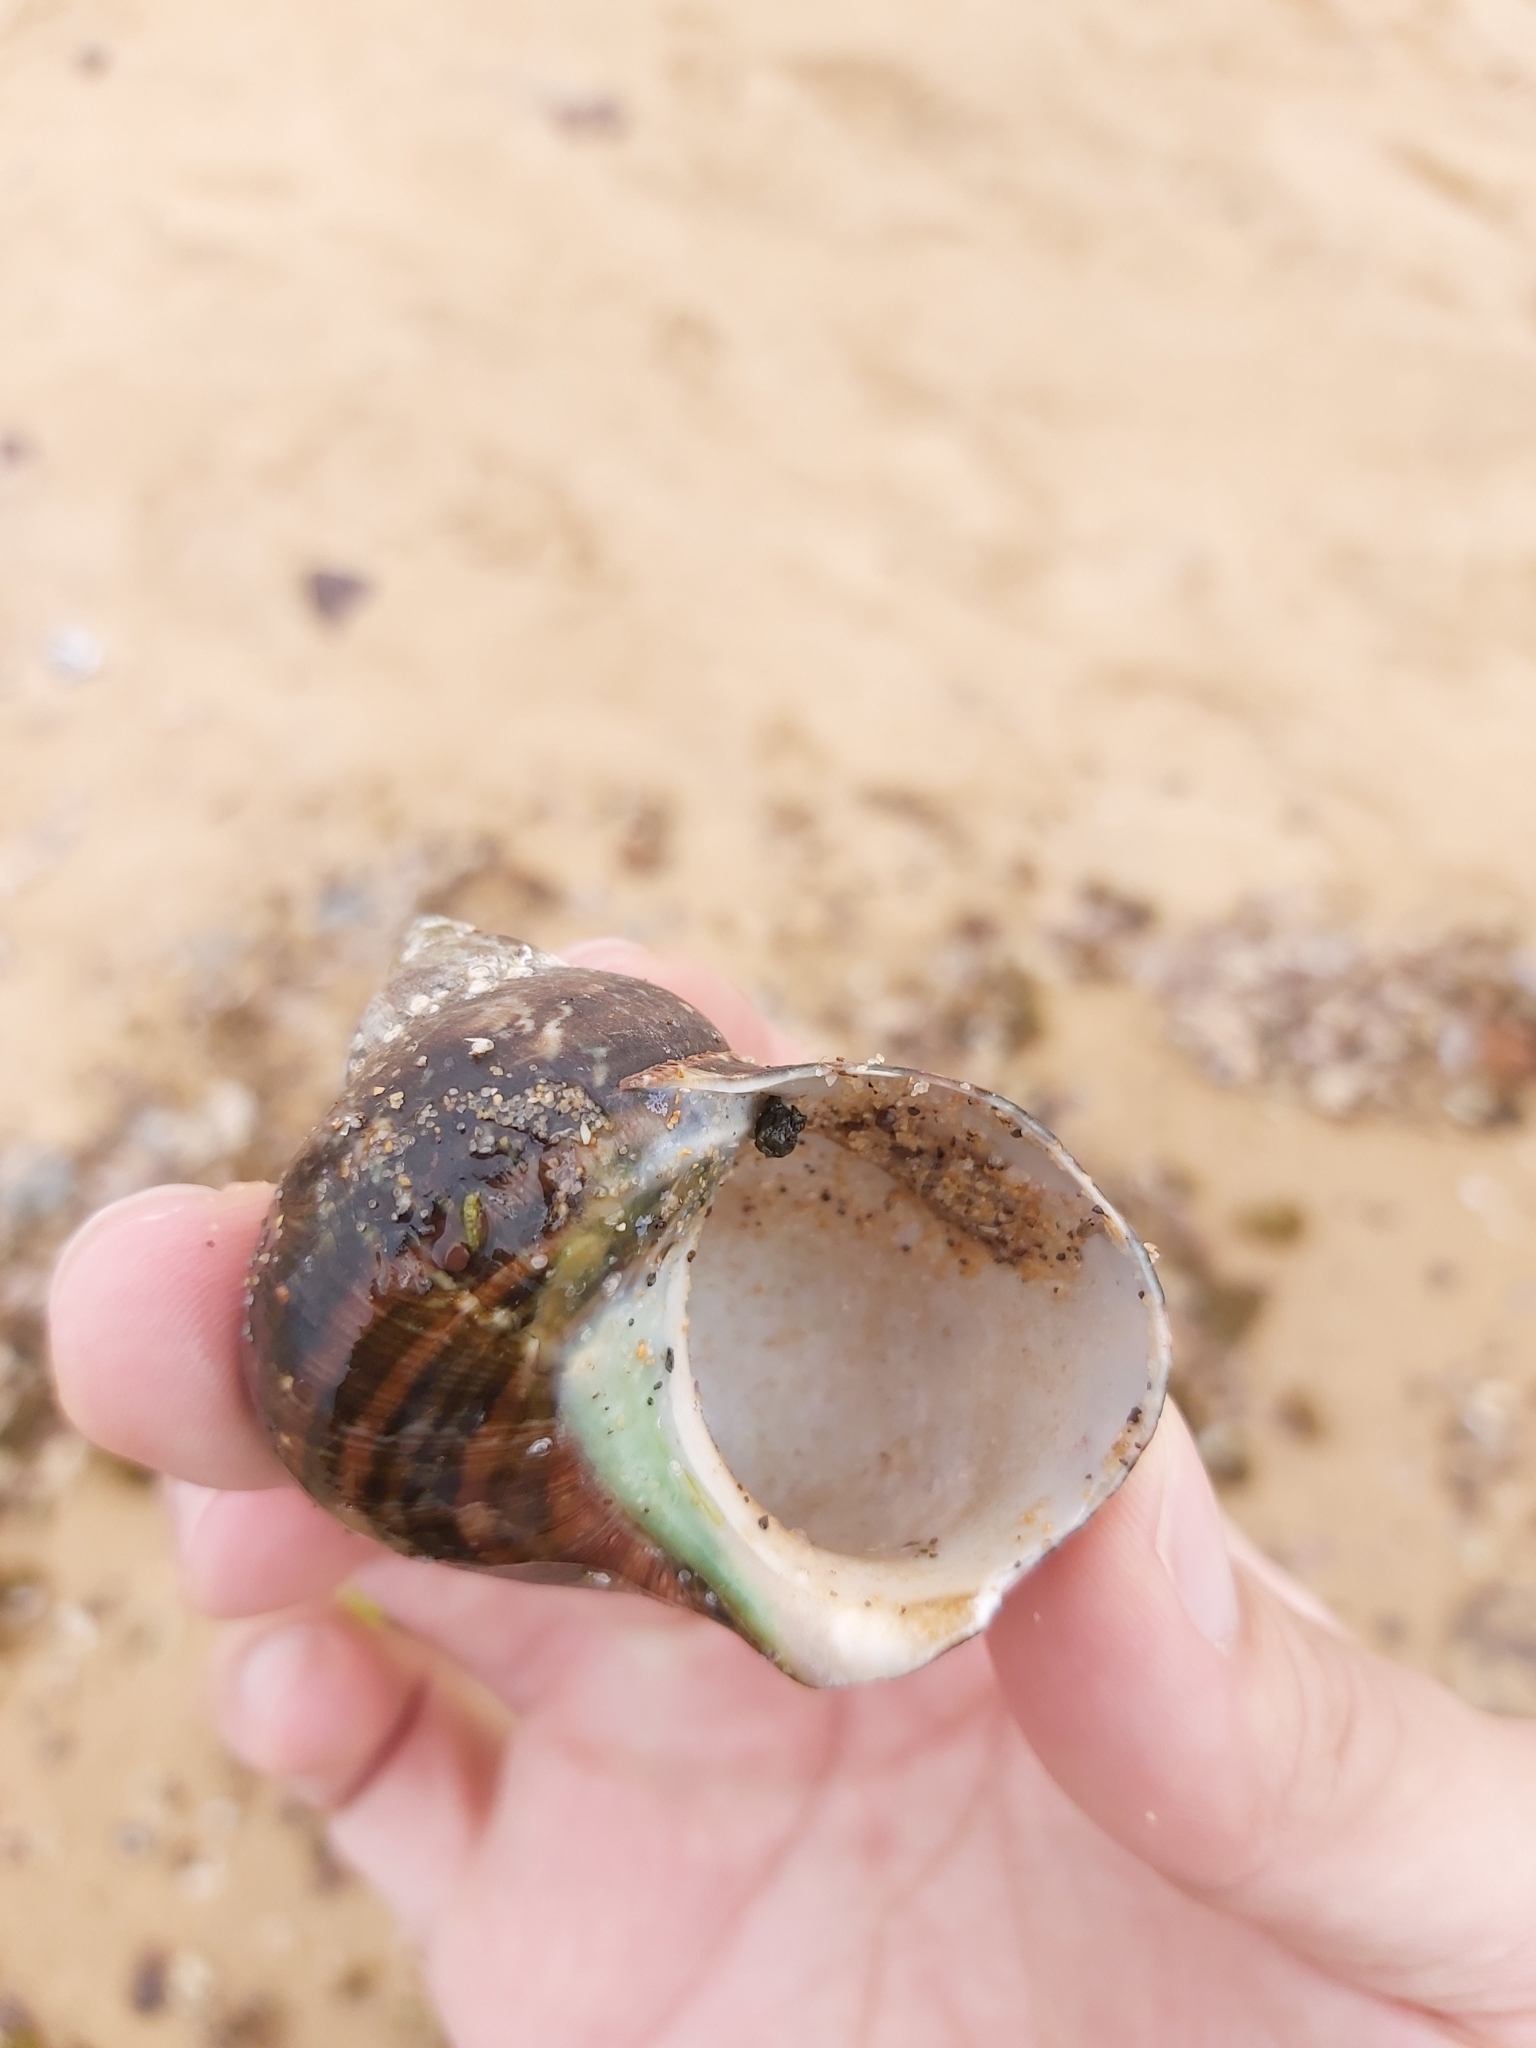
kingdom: Animalia
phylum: Mollusca
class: Gastropoda
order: Trochida
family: Turbinidae
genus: Turbo
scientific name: Turbo militaris
